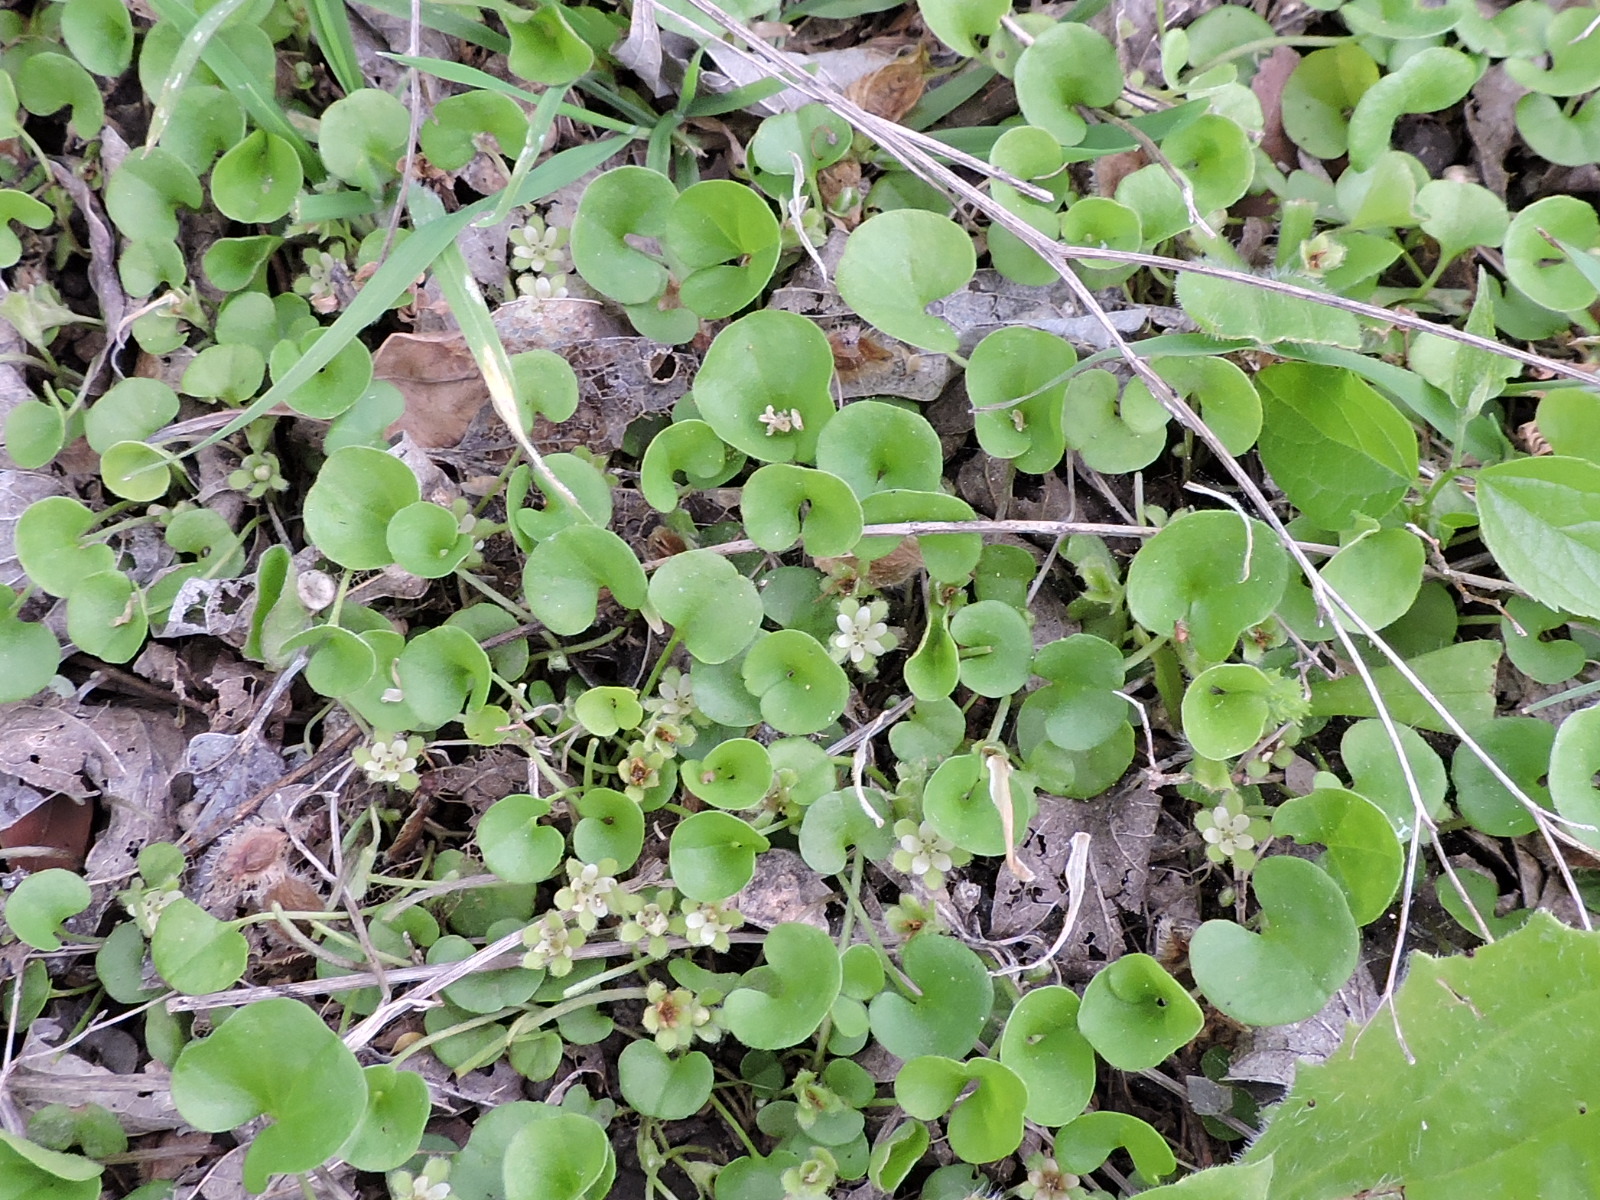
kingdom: Plantae
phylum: Tracheophyta
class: Magnoliopsida
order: Solanales
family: Convolvulaceae
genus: Dichondra
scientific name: Dichondra carolinensis
